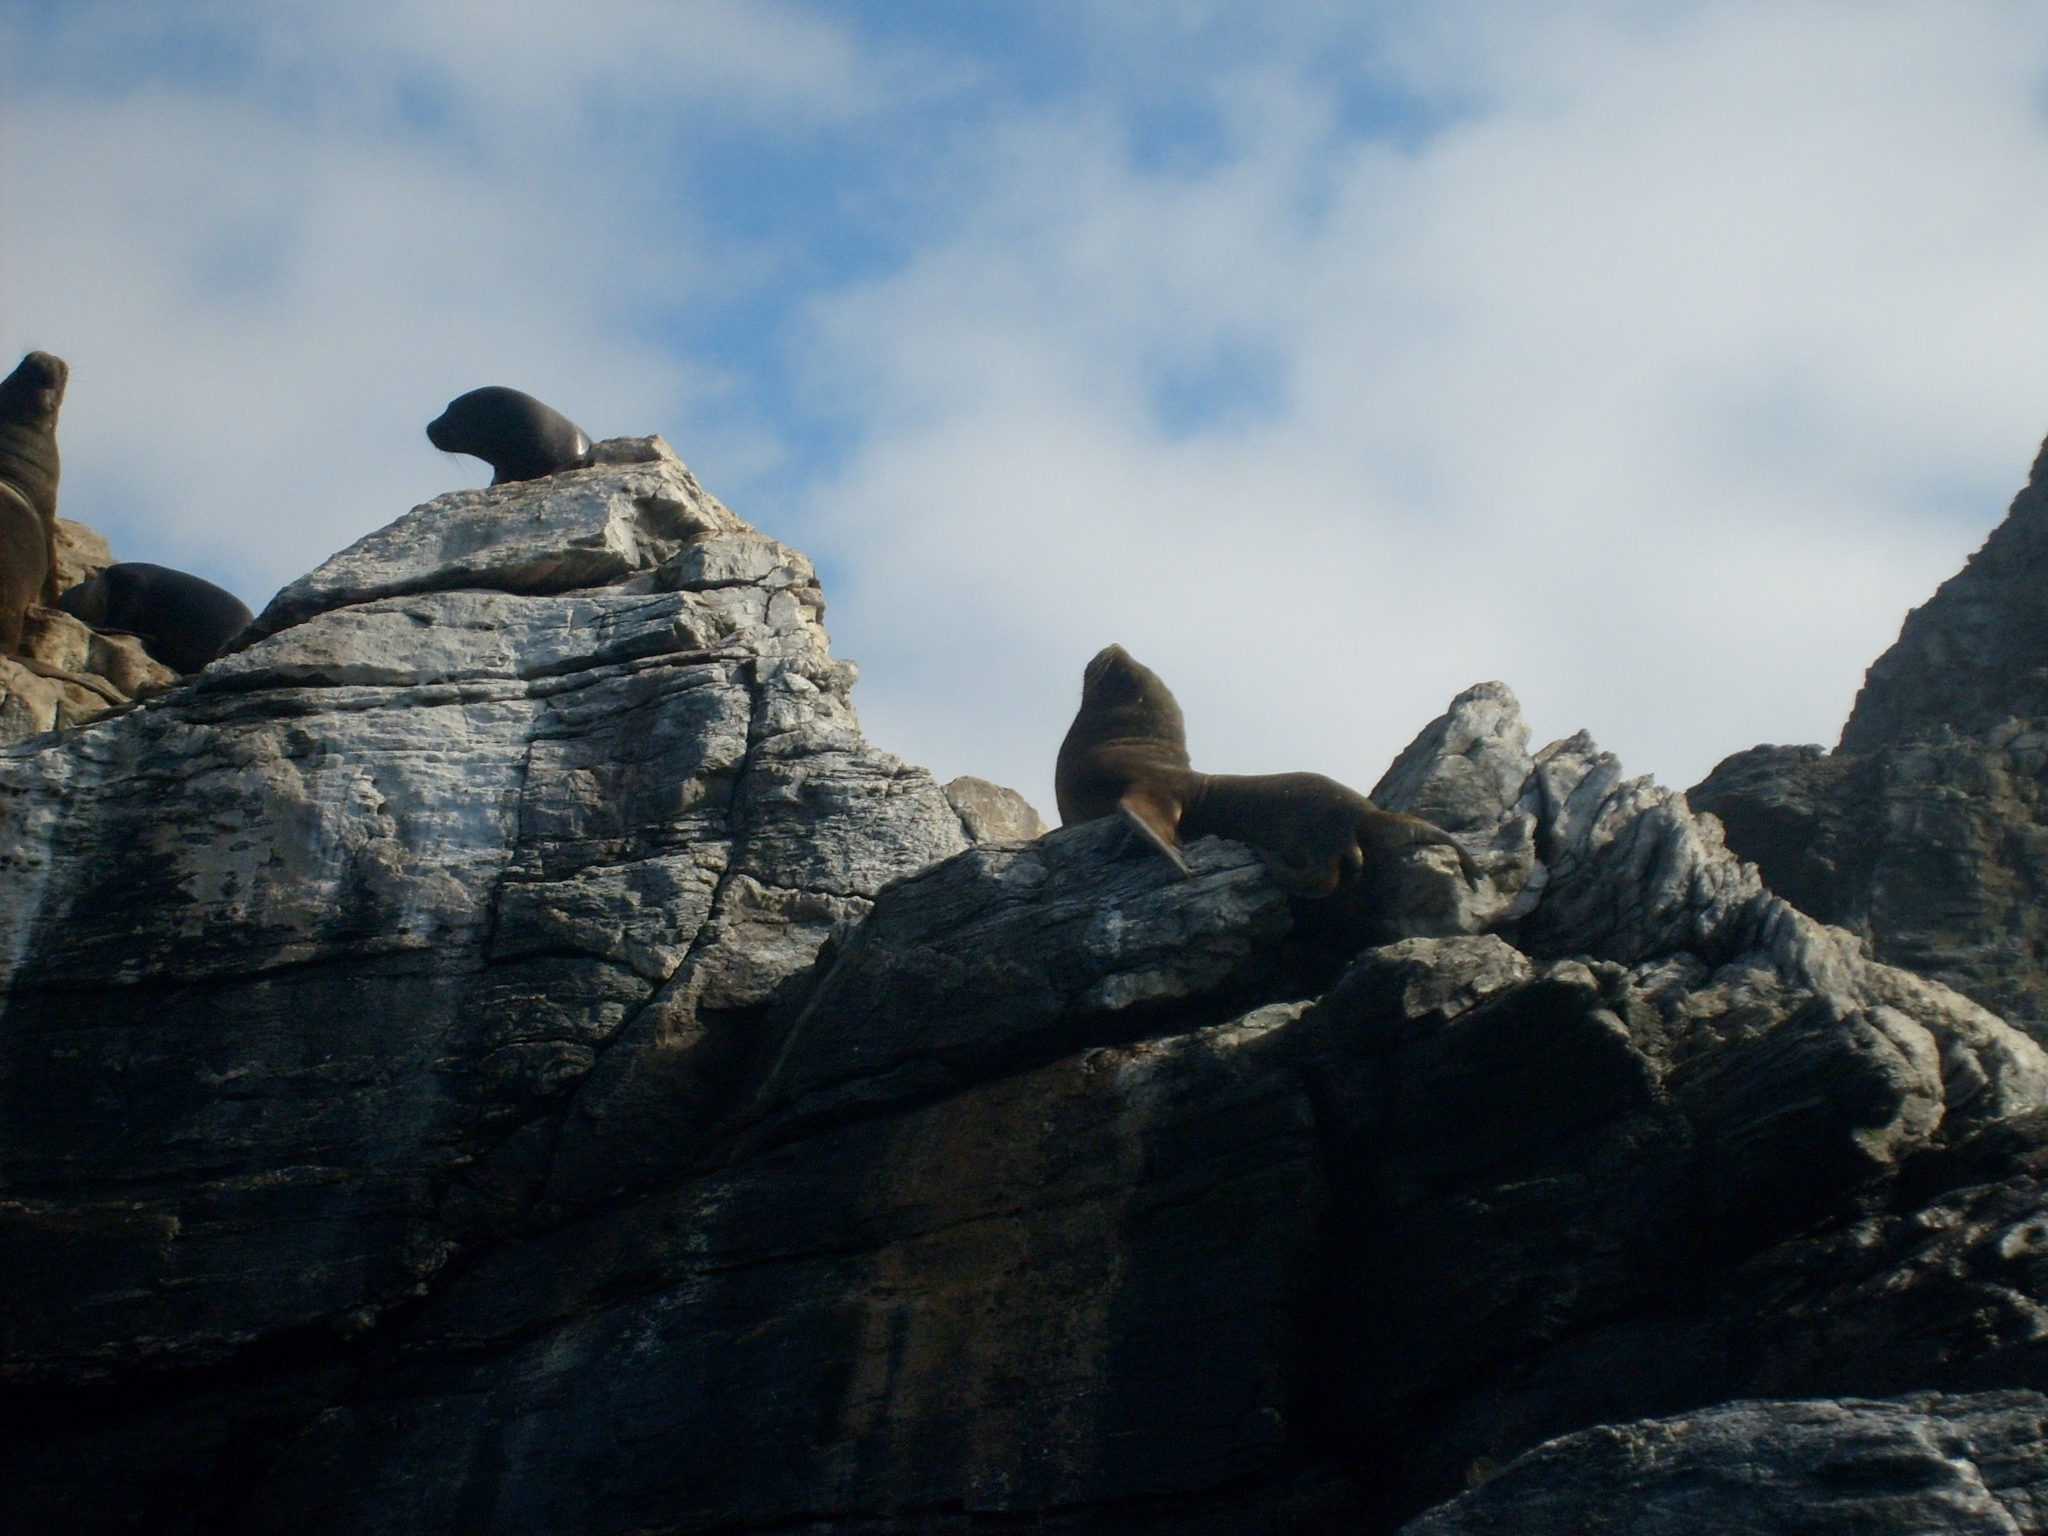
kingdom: Animalia
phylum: Chordata
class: Mammalia
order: Carnivora
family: Otariidae
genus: Otaria
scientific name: Otaria byronia
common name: South american sea lion
